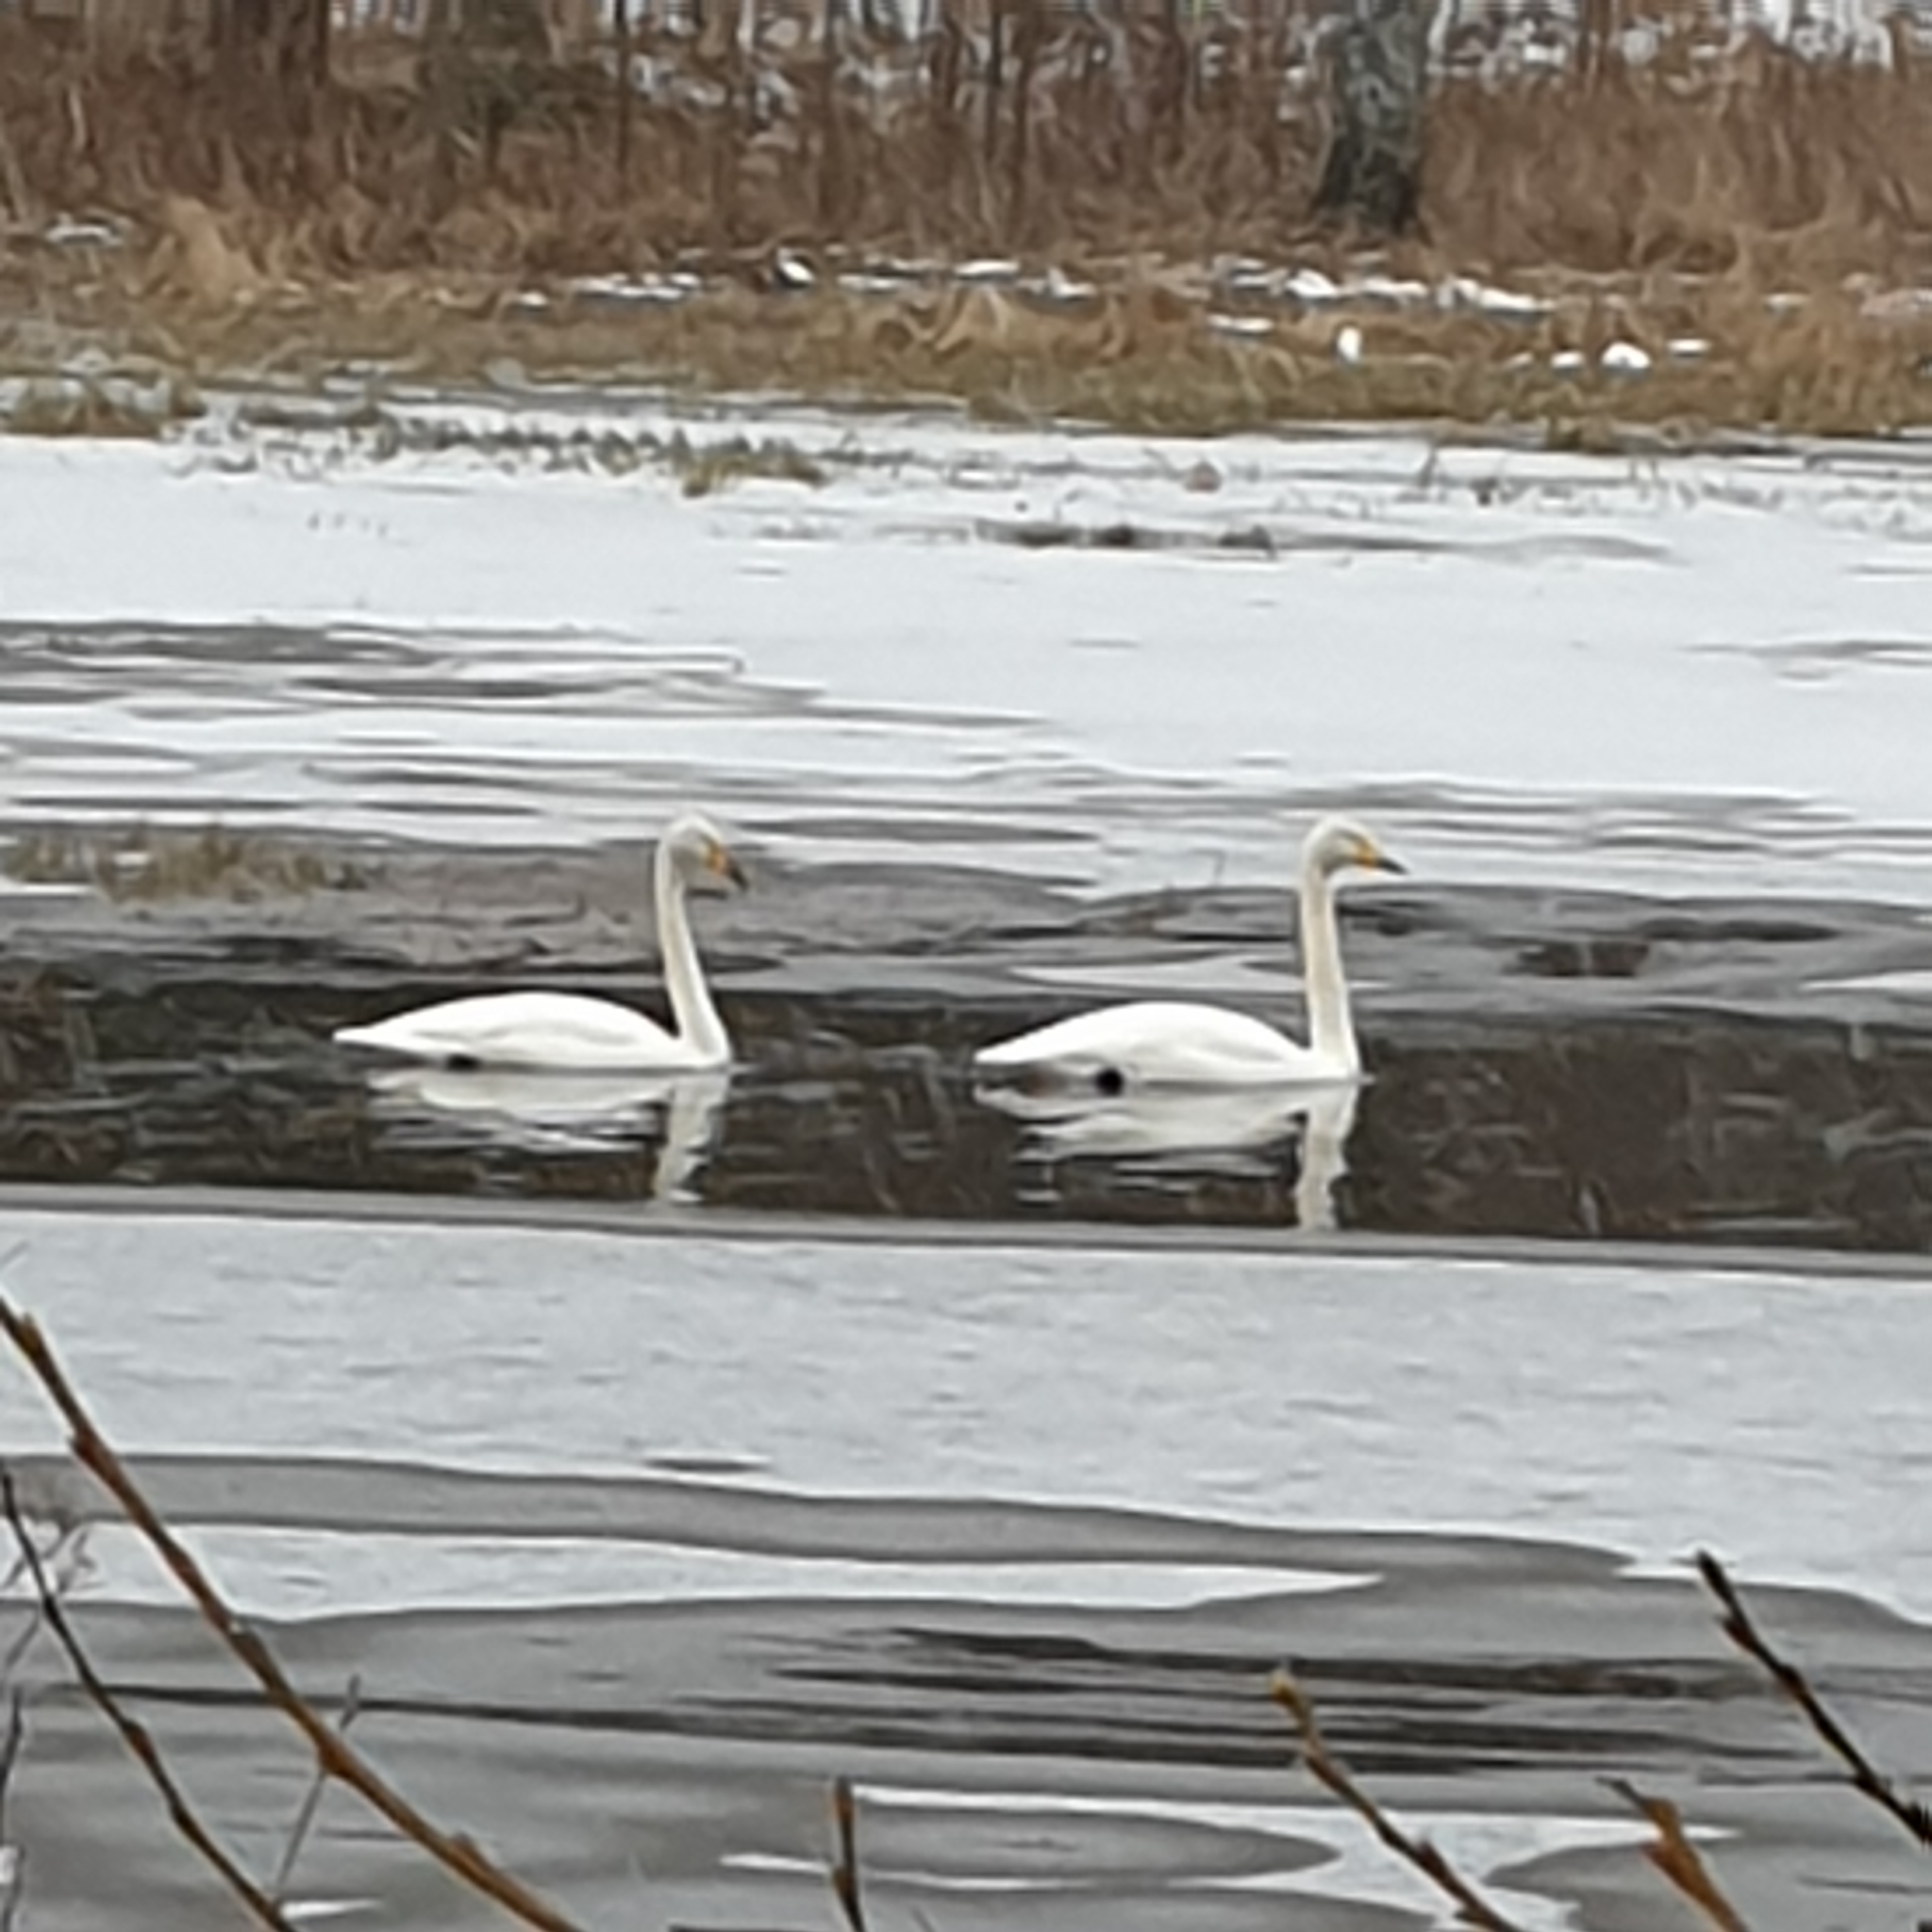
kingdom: Animalia
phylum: Chordata
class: Aves
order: Anseriformes
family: Anatidae
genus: Cygnus
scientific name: Cygnus cygnus
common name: Whooper swan
